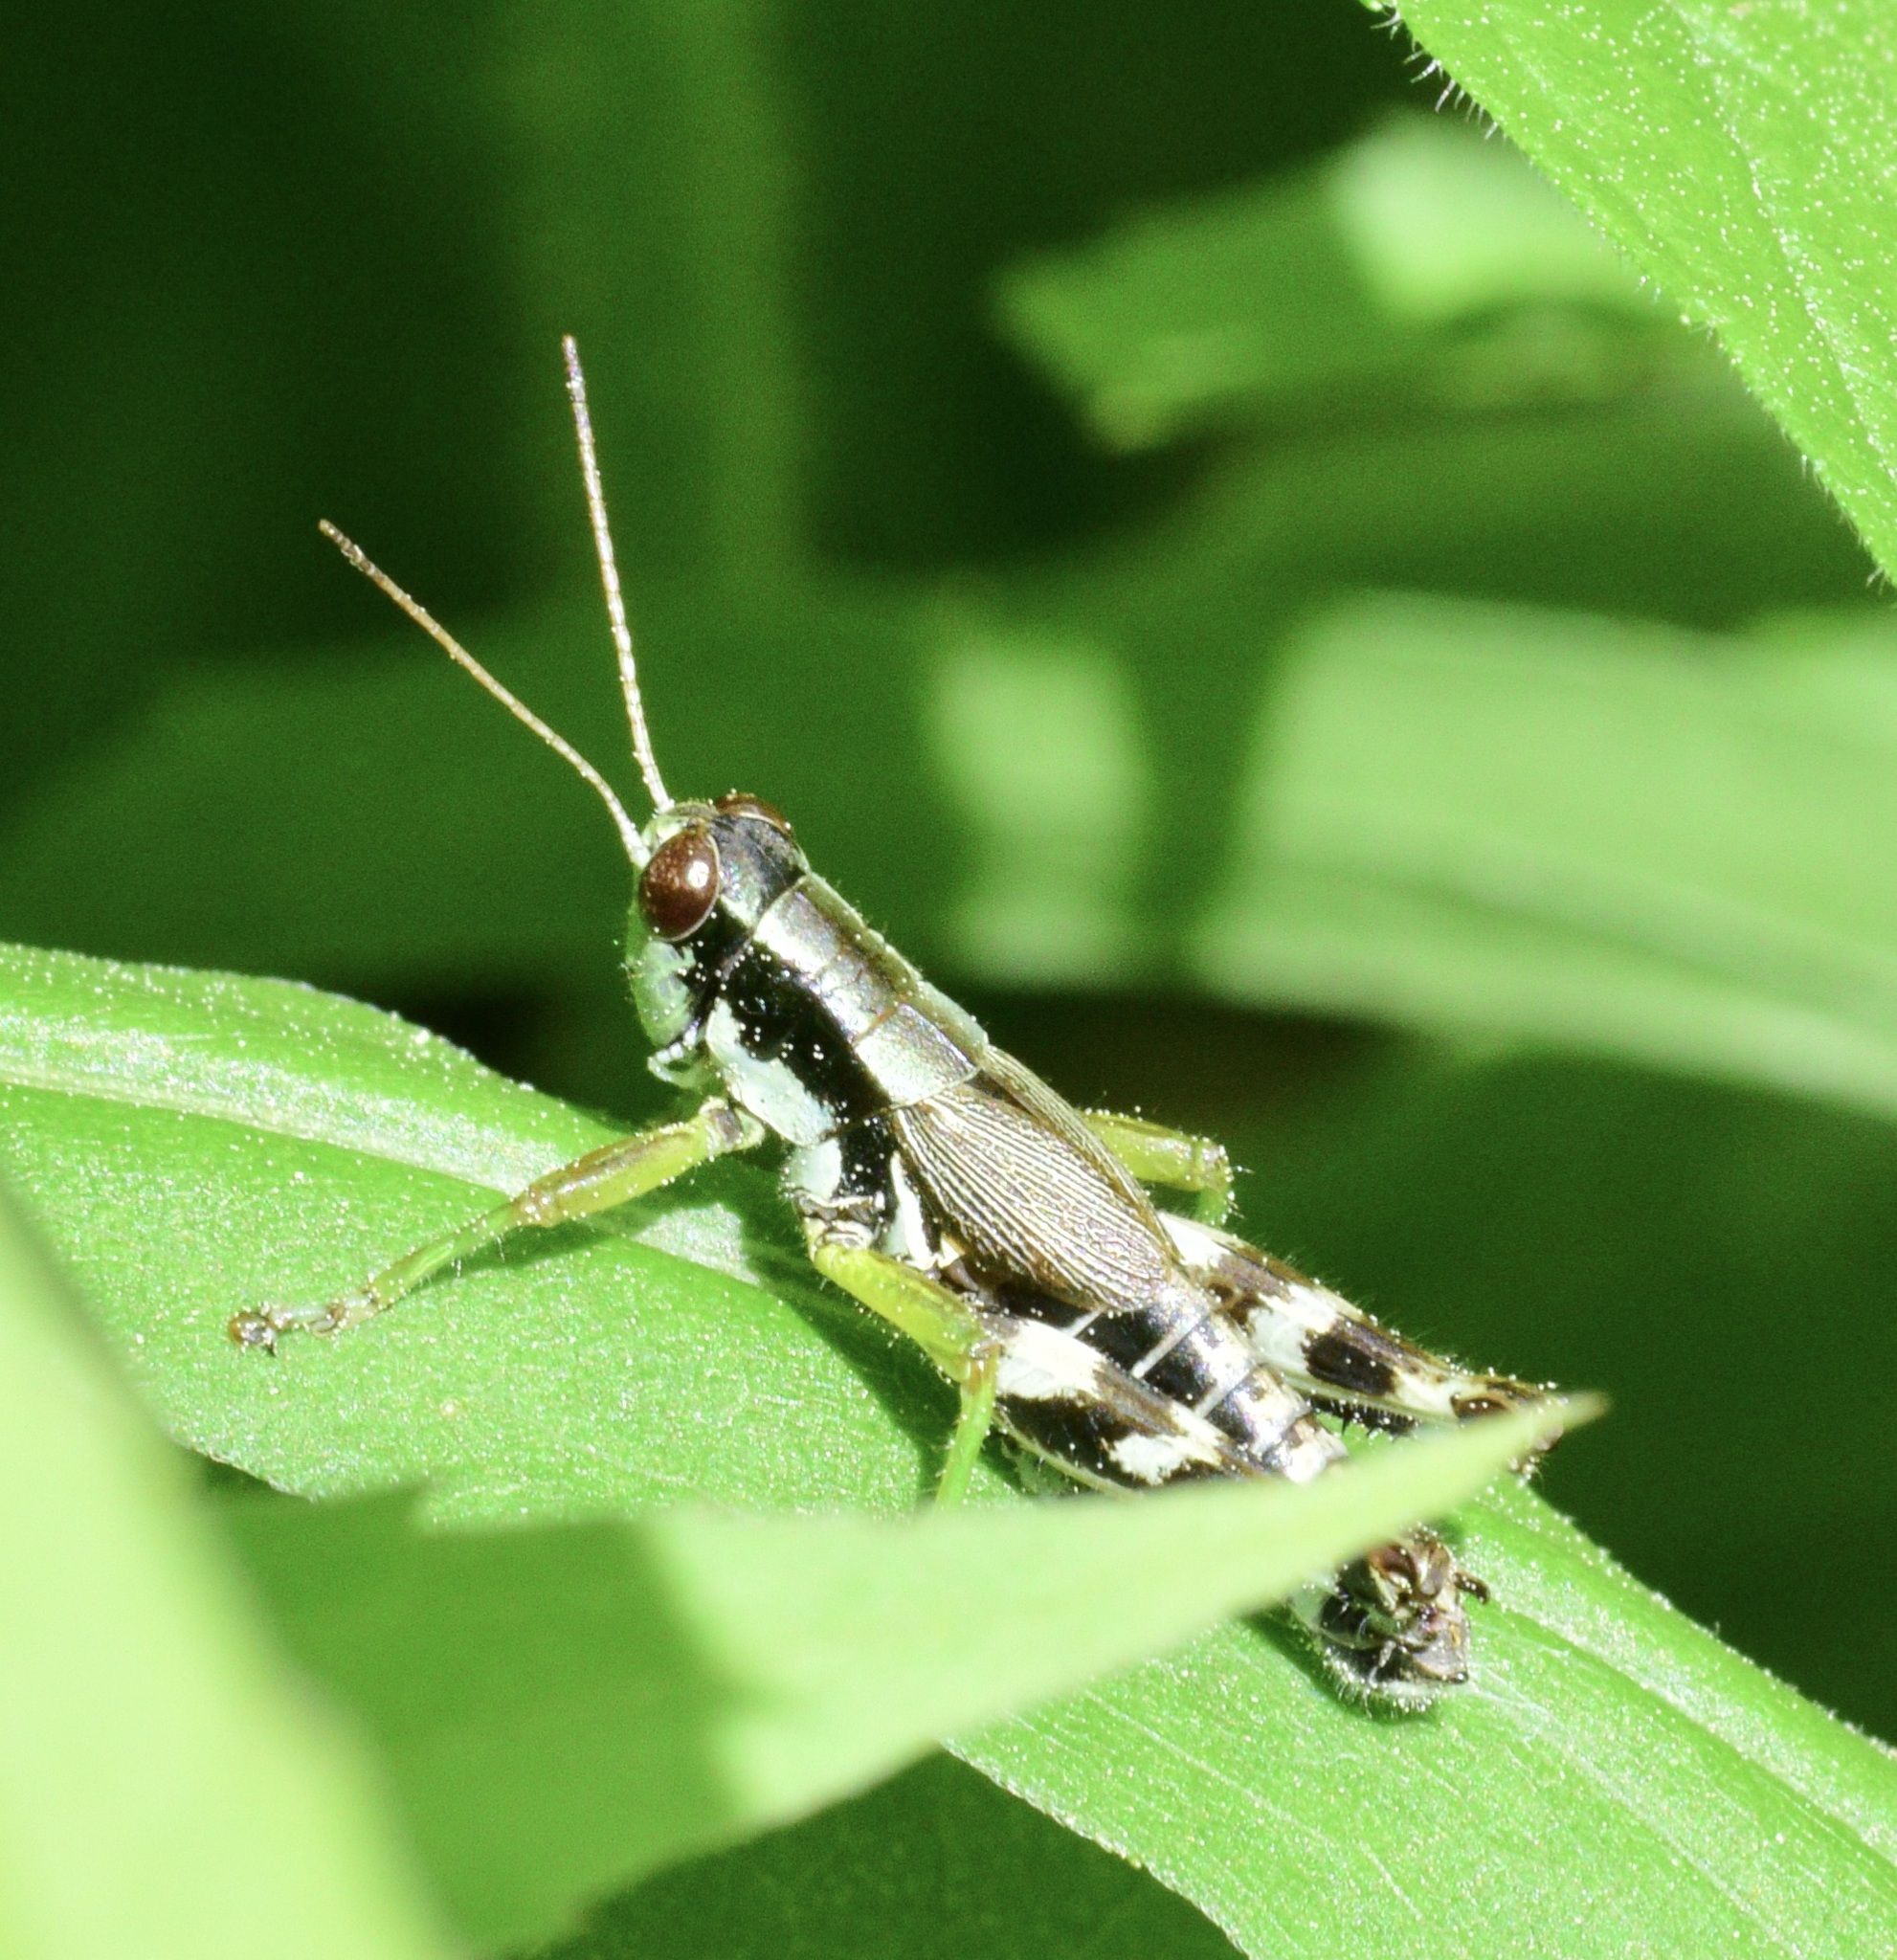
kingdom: Animalia
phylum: Arthropoda
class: Insecta
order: Orthoptera
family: Acrididae
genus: Melanoplus
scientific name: Melanoplus viridipes
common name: Green-legged locust
